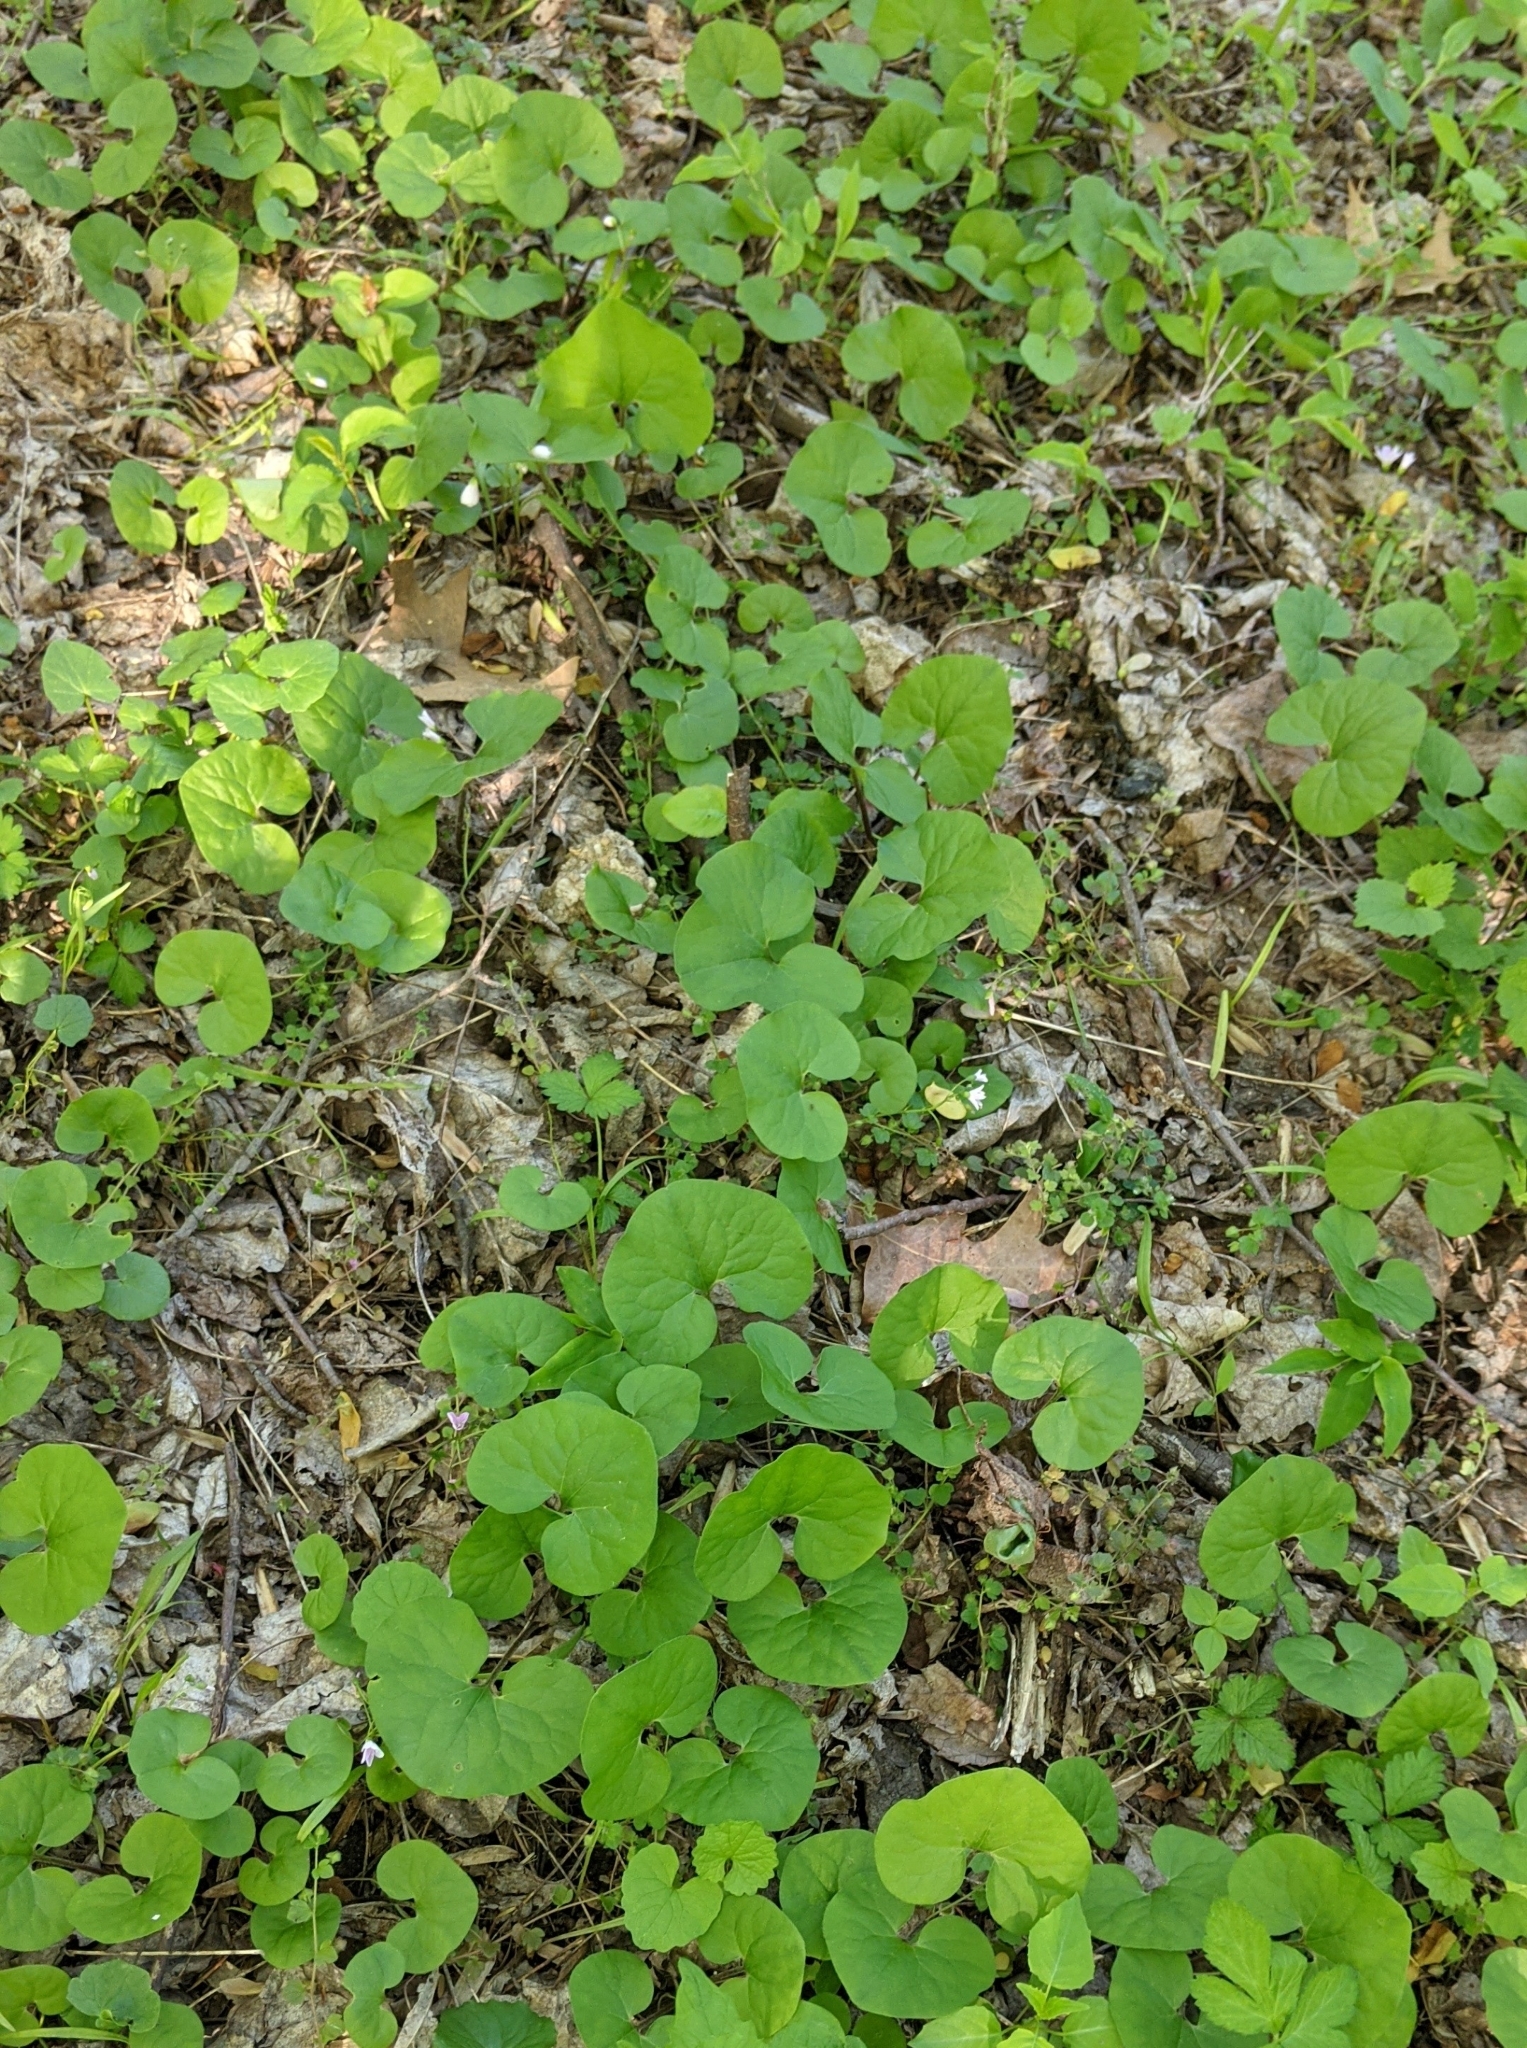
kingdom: Plantae
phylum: Tracheophyta
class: Magnoliopsida
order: Piperales
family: Aristolochiaceae
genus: Asarum
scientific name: Asarum canadense
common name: Wild ginger
